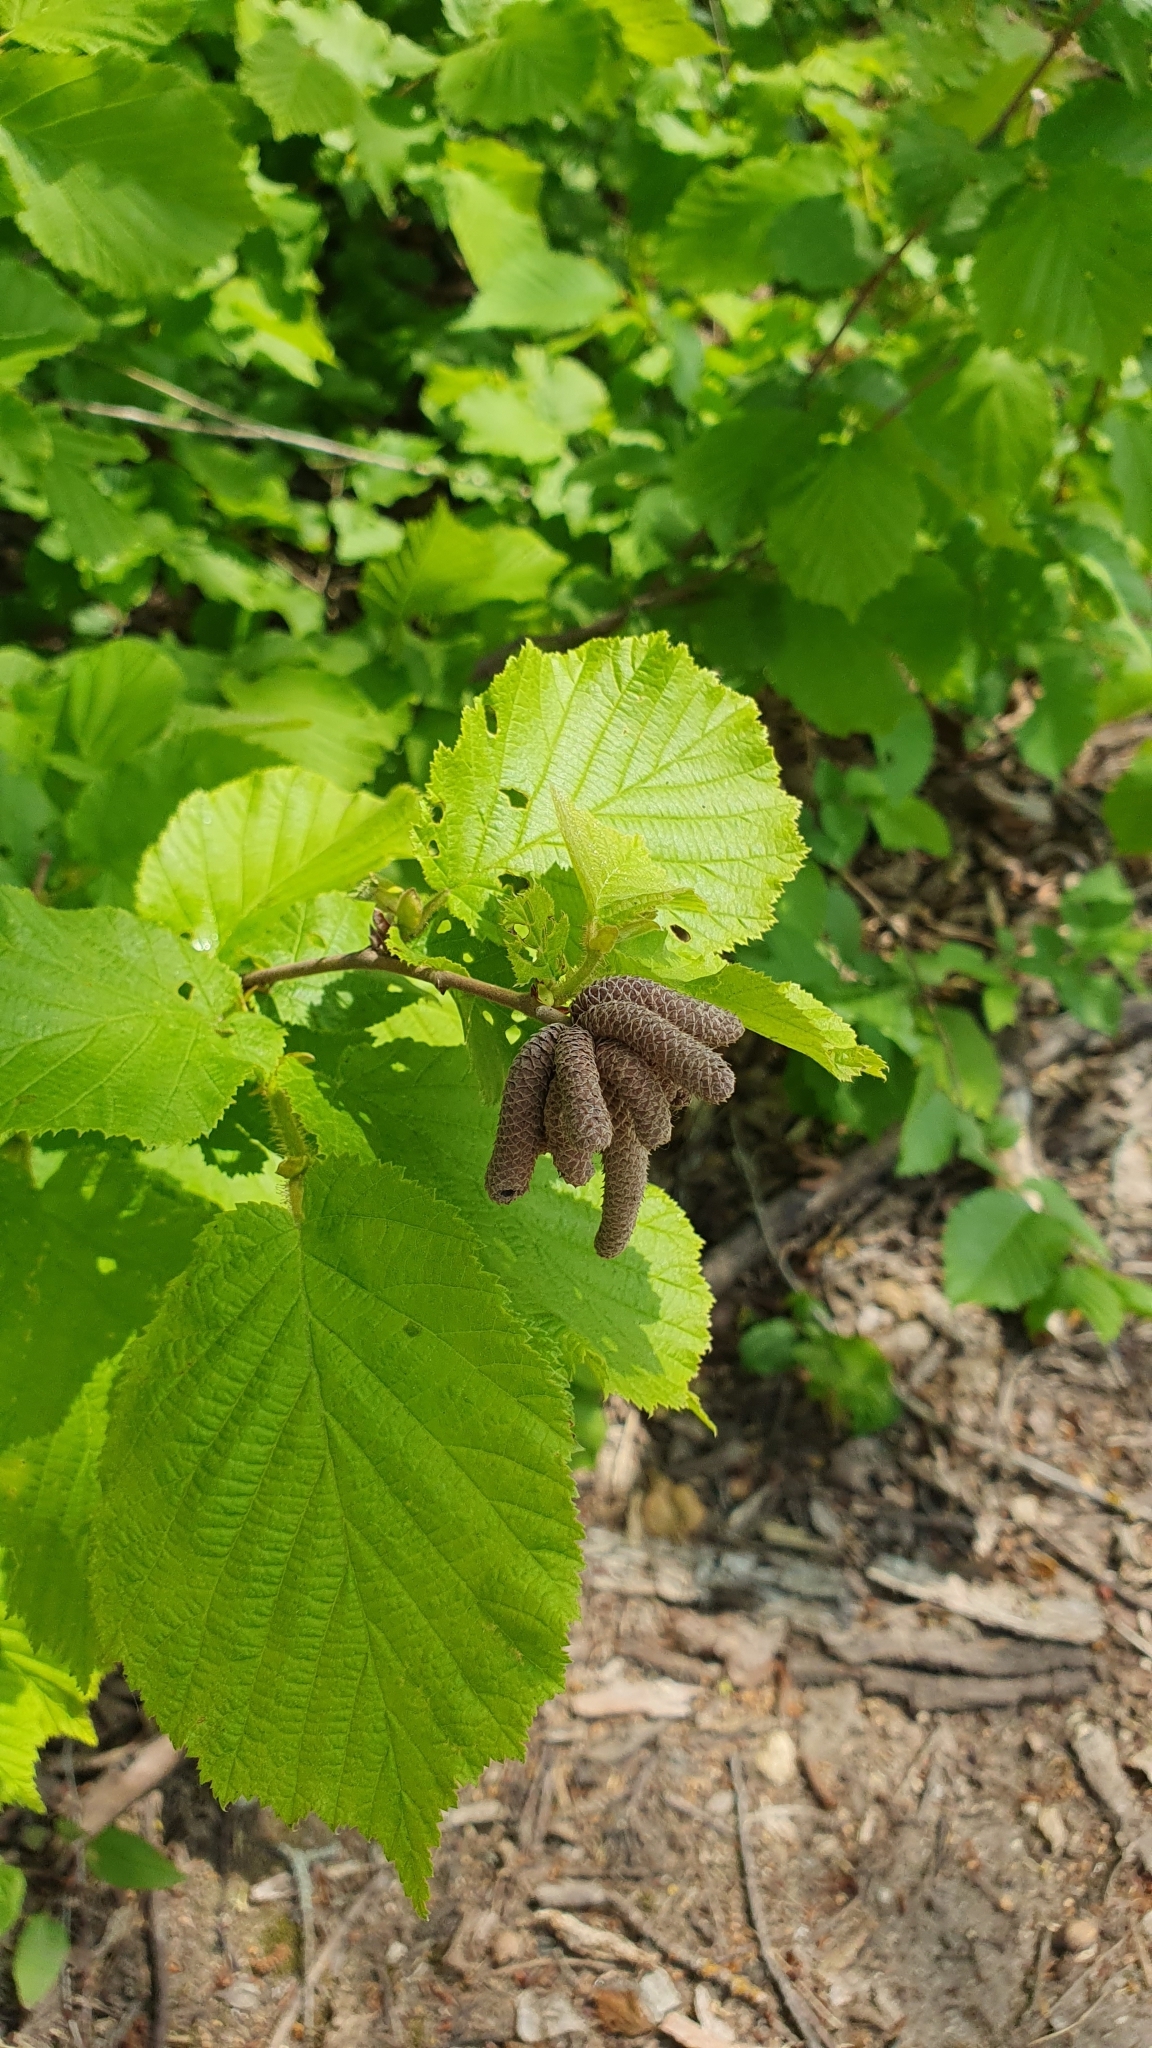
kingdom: Plantae
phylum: Tracheophyta
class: Magnoliopsida
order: Fagales
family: Betulaceae
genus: Corylus
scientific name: Corylus avellana
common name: European hazel
